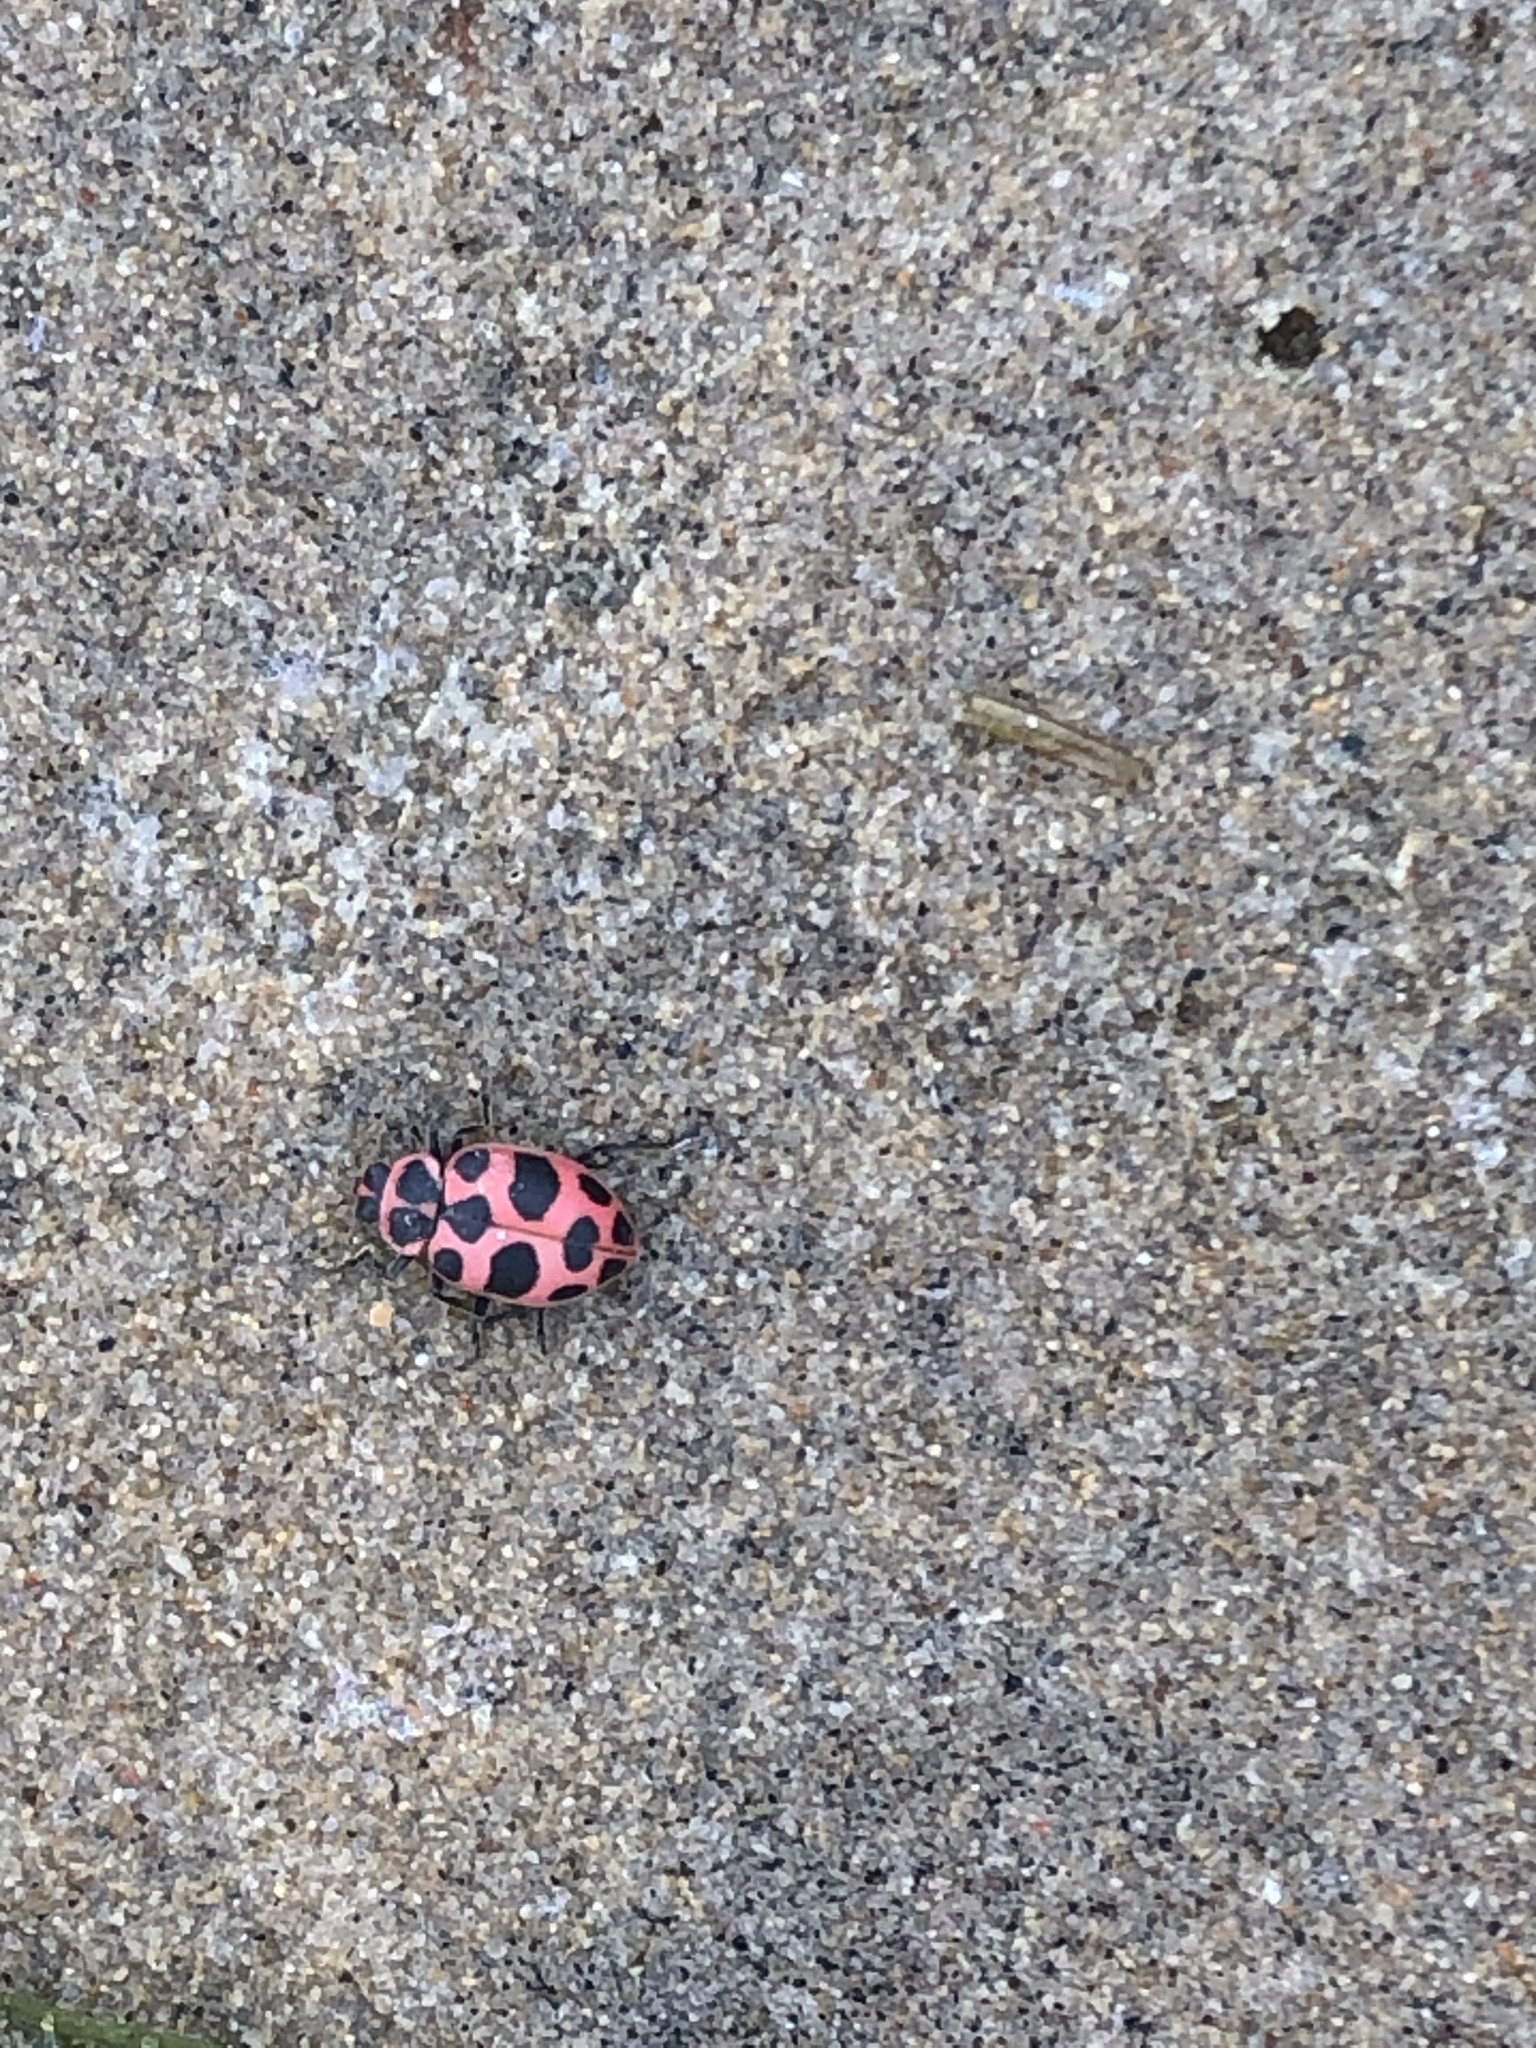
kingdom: Animalia
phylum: Arthropoda
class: Insecta
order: Coleoptera
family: Coccinellidae
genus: Coleomegilla
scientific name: Coleomegilla maculata
